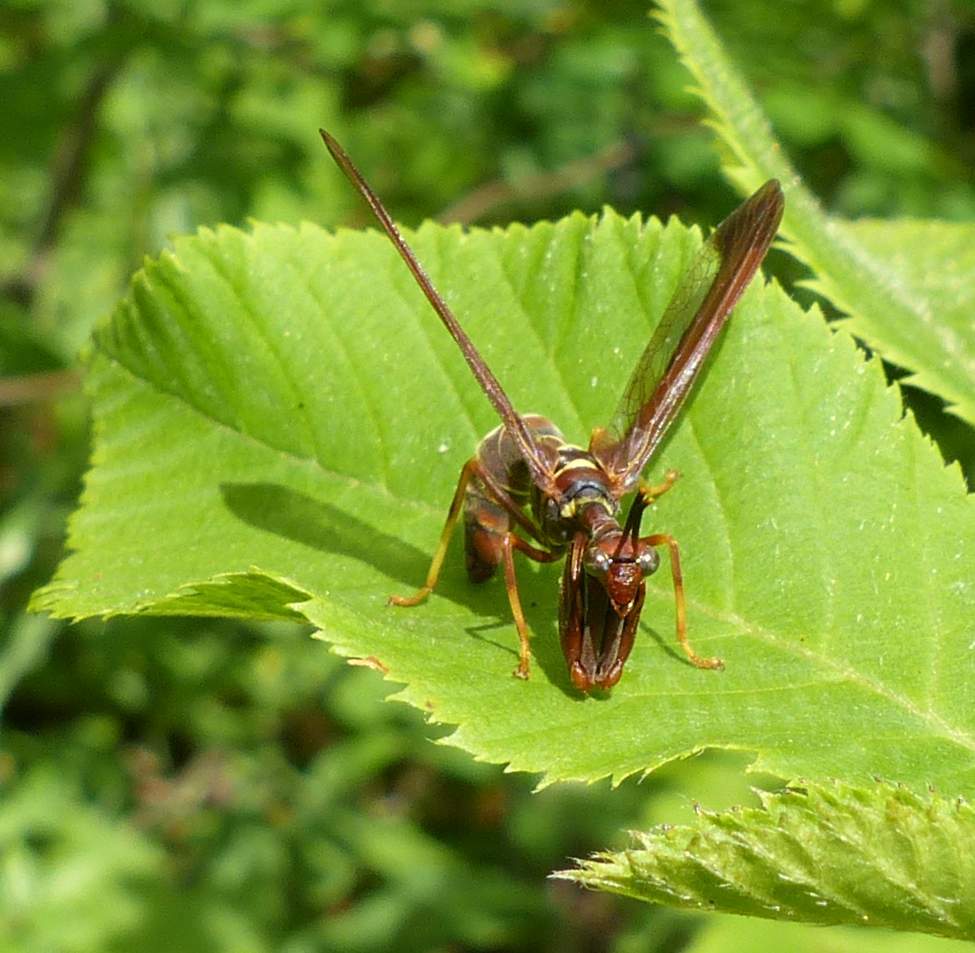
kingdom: Animalia
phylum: Arthropoda
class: Insecta
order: Neuroptera
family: Mantispidae
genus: Climaciella
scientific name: Climaciella brunnea
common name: Brown wasp mantidfly
